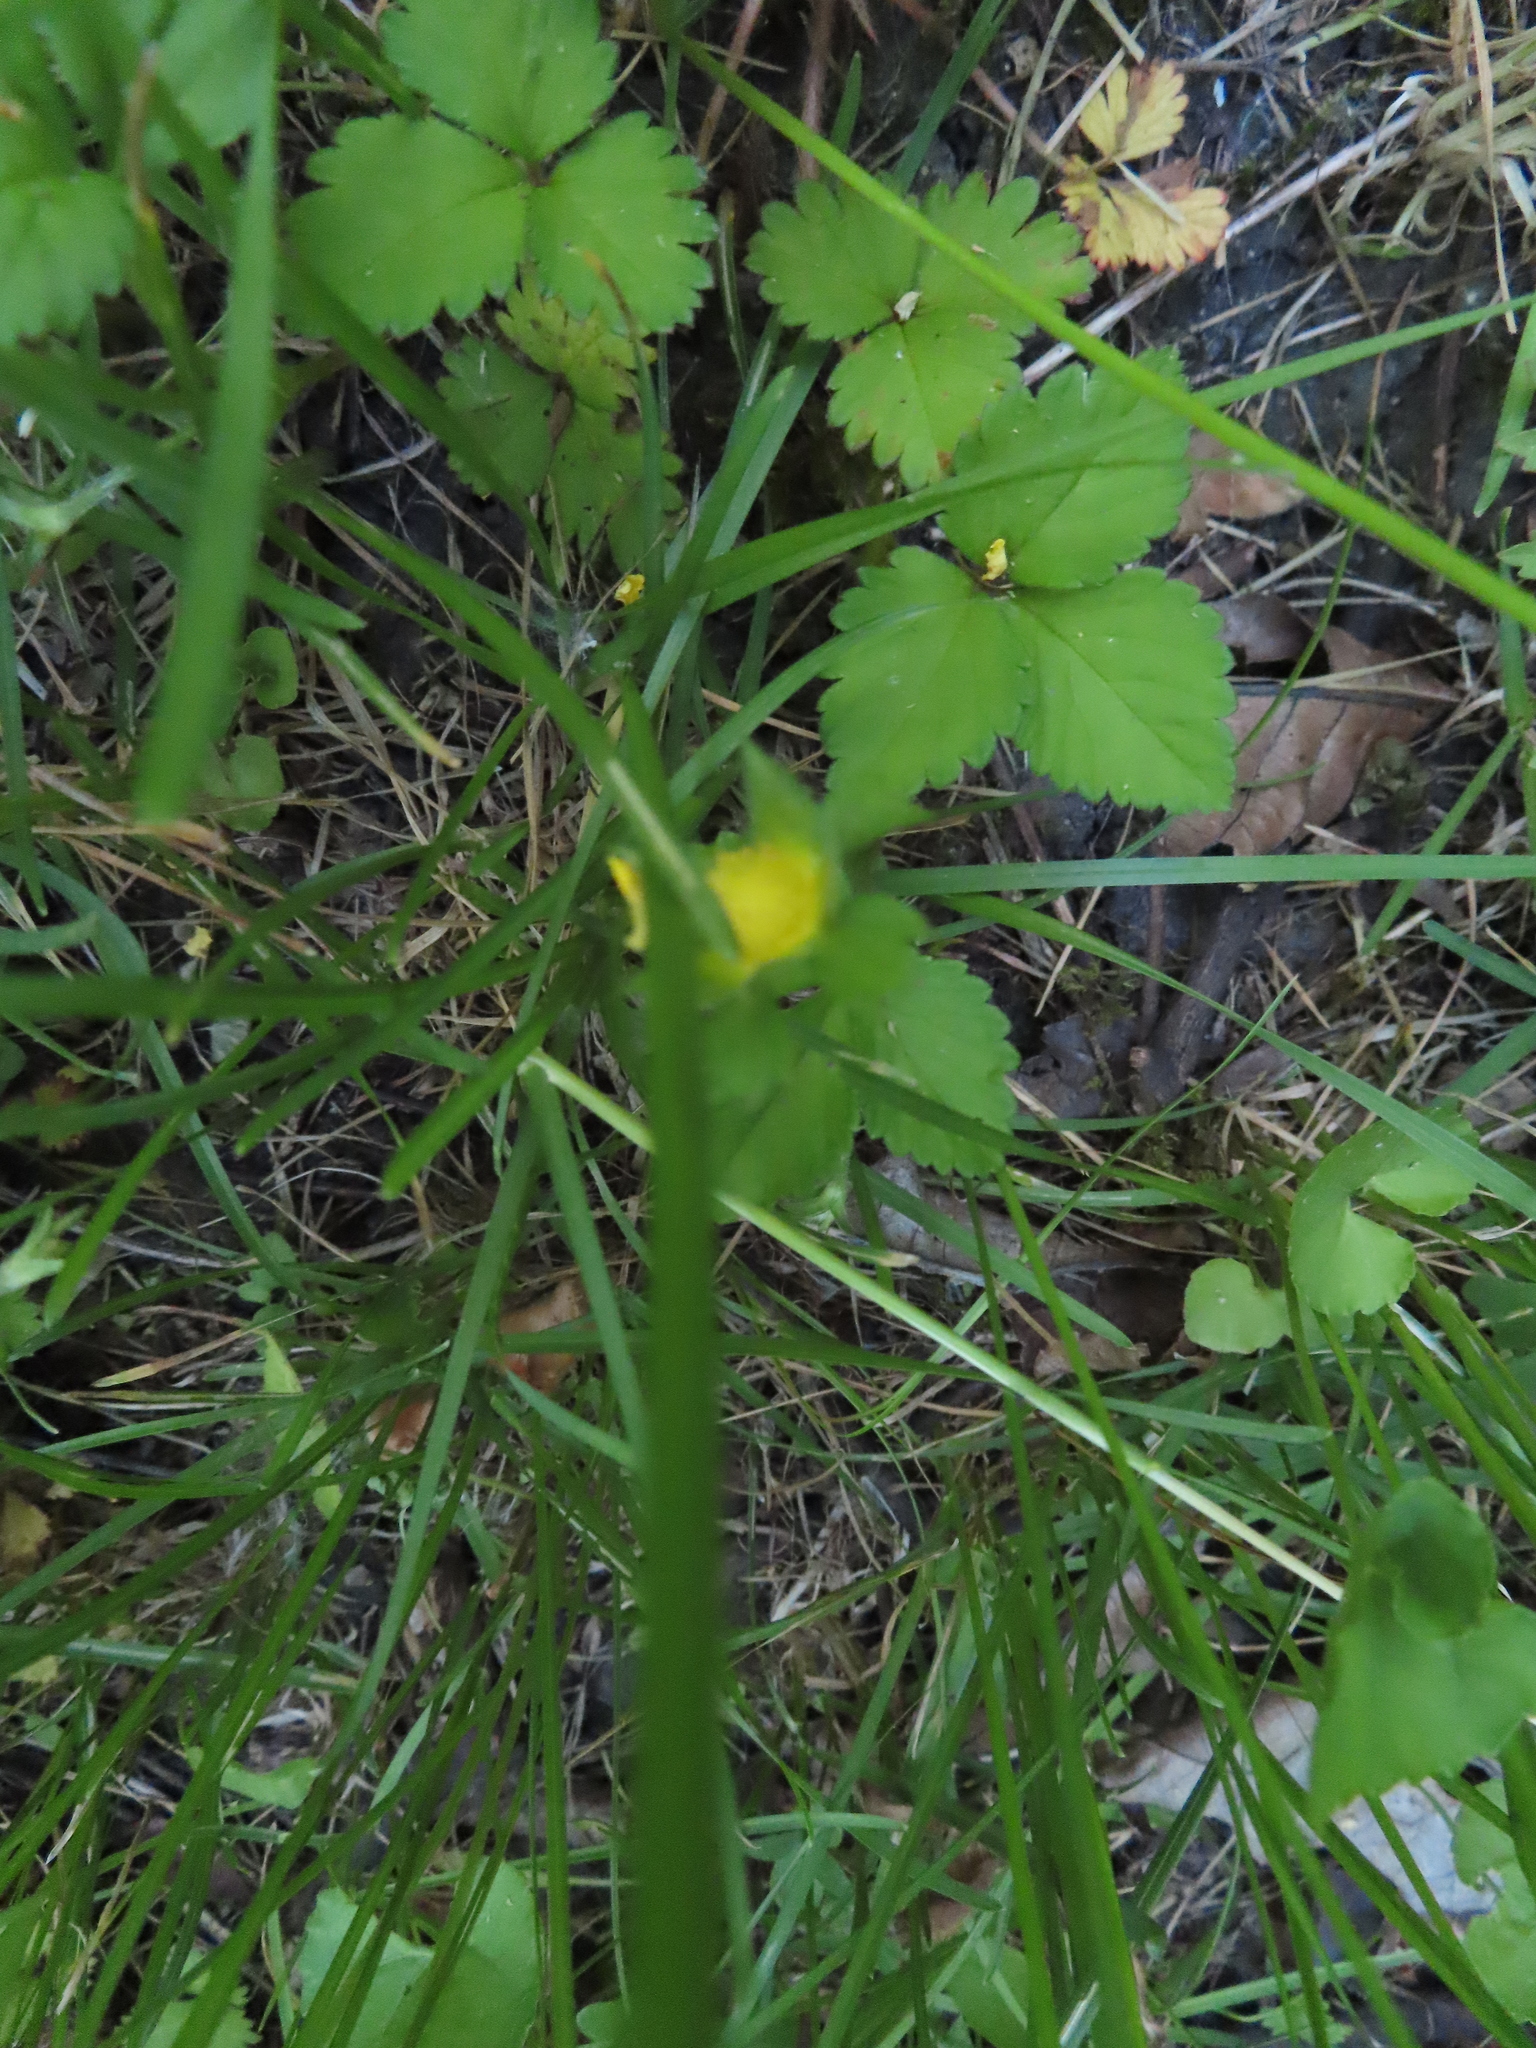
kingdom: Plantae
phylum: Tracheophyta
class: Magnoliopsida
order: Rosales
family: Rosaceae
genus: Potentilla
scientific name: Potentilla indica
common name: Yellow-flowered strawberry
